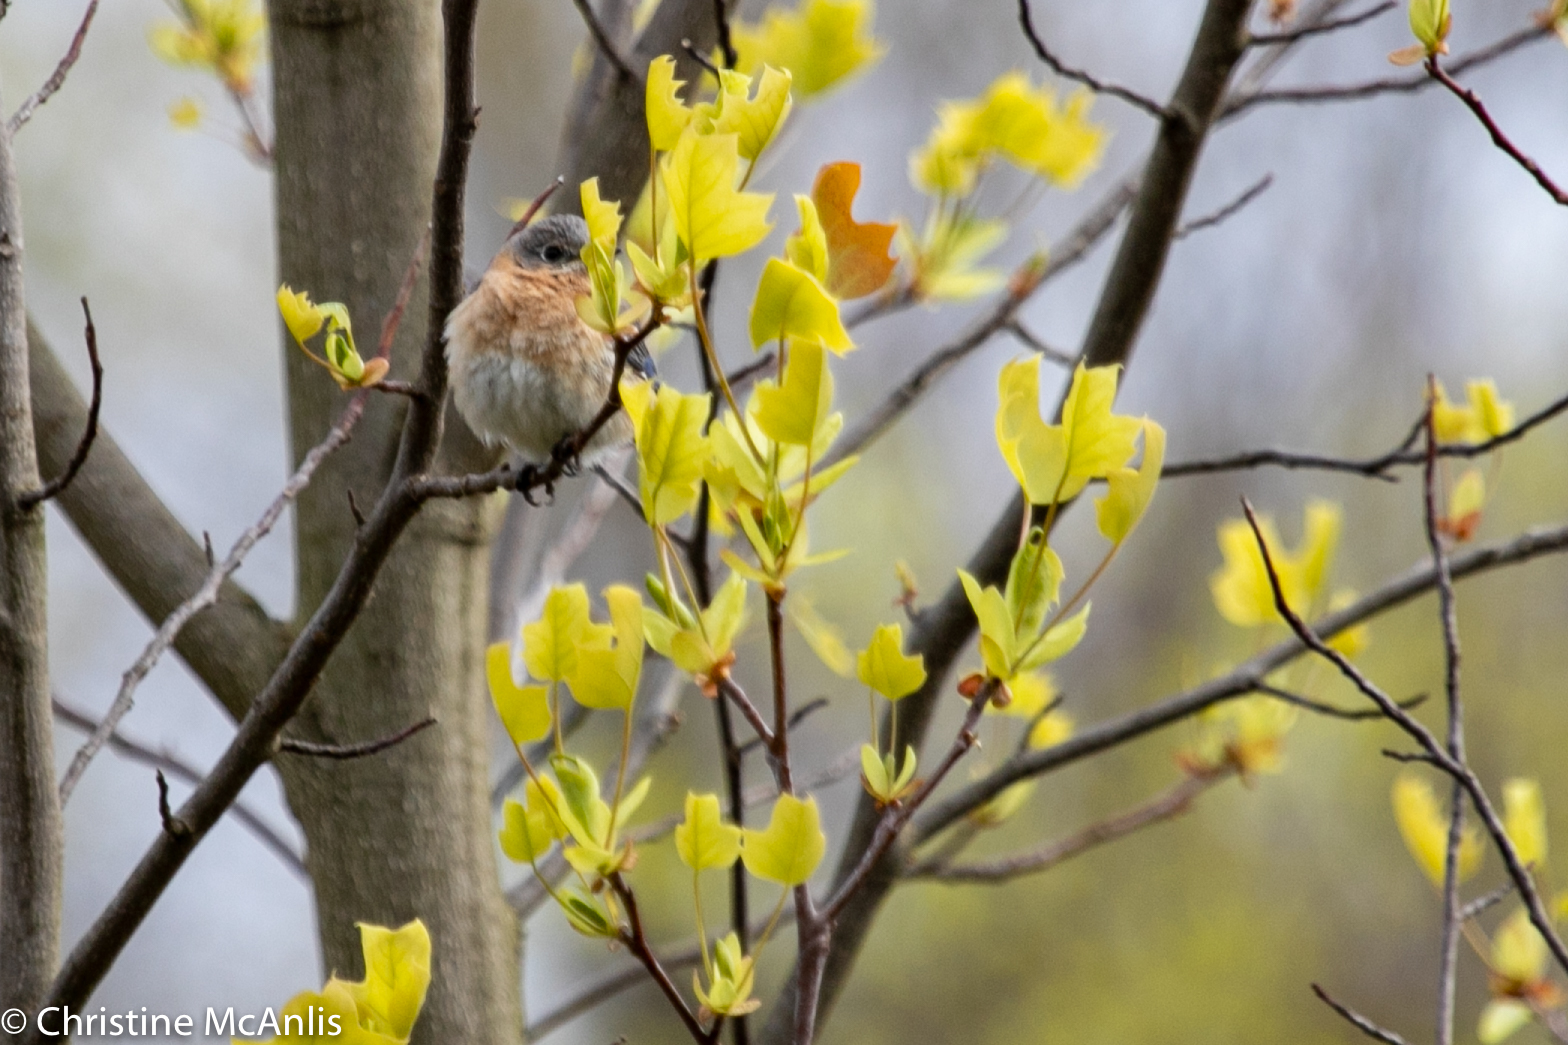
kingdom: Animalia
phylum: Chordata
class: Aves
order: Passeriformes
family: Turdidae
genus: Sialia
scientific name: Sialia sialis
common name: Eastern bluebird
